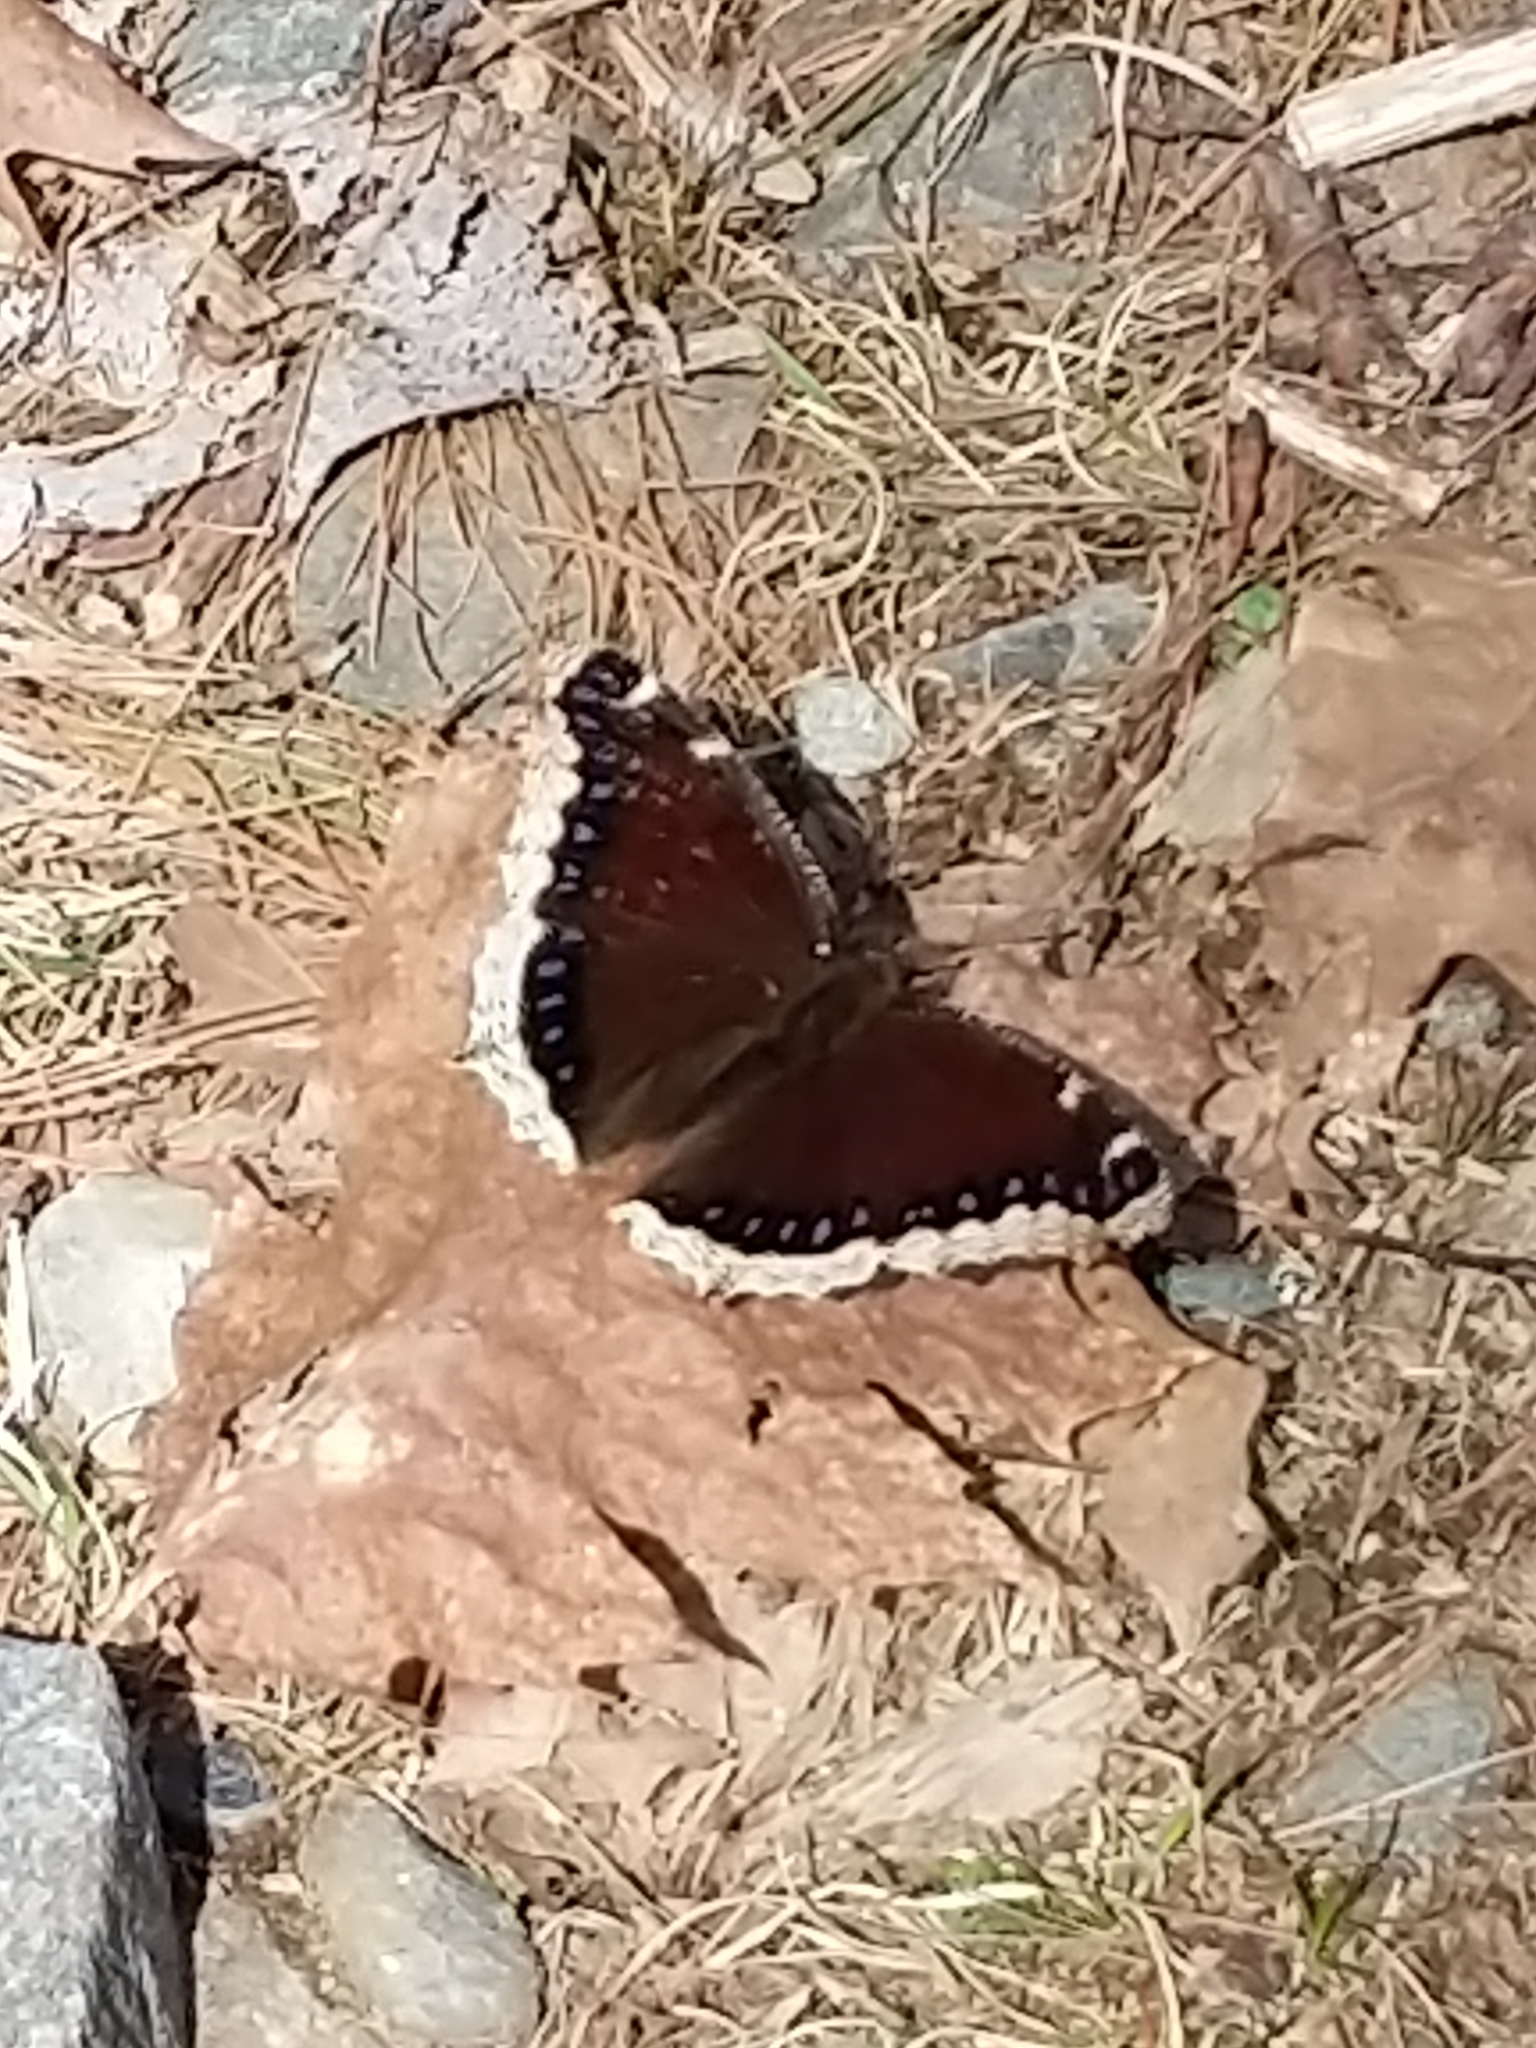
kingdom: Animalia
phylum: Arthropoda
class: Insecta
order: Lepidoptera
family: Nymphalidae
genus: Nymphalis
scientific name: Nymphalis antiopa
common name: Camberwell beauty
